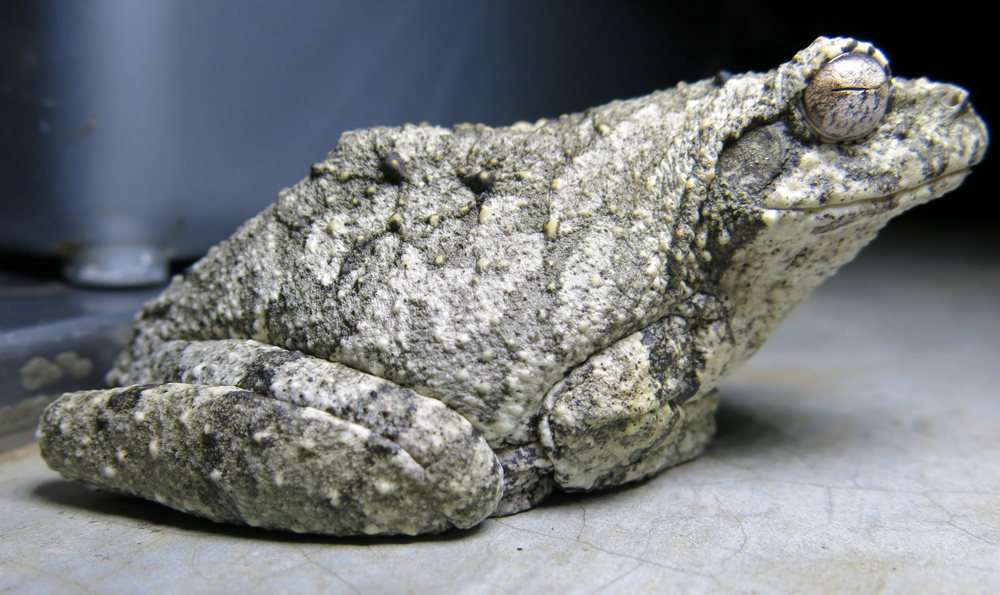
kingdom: Animalia
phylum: Chordata
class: Amphibia
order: Anura
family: Rhacophoridae
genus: Chiromantis
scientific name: Chiromantis xerampelina
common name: African gray treefrog
